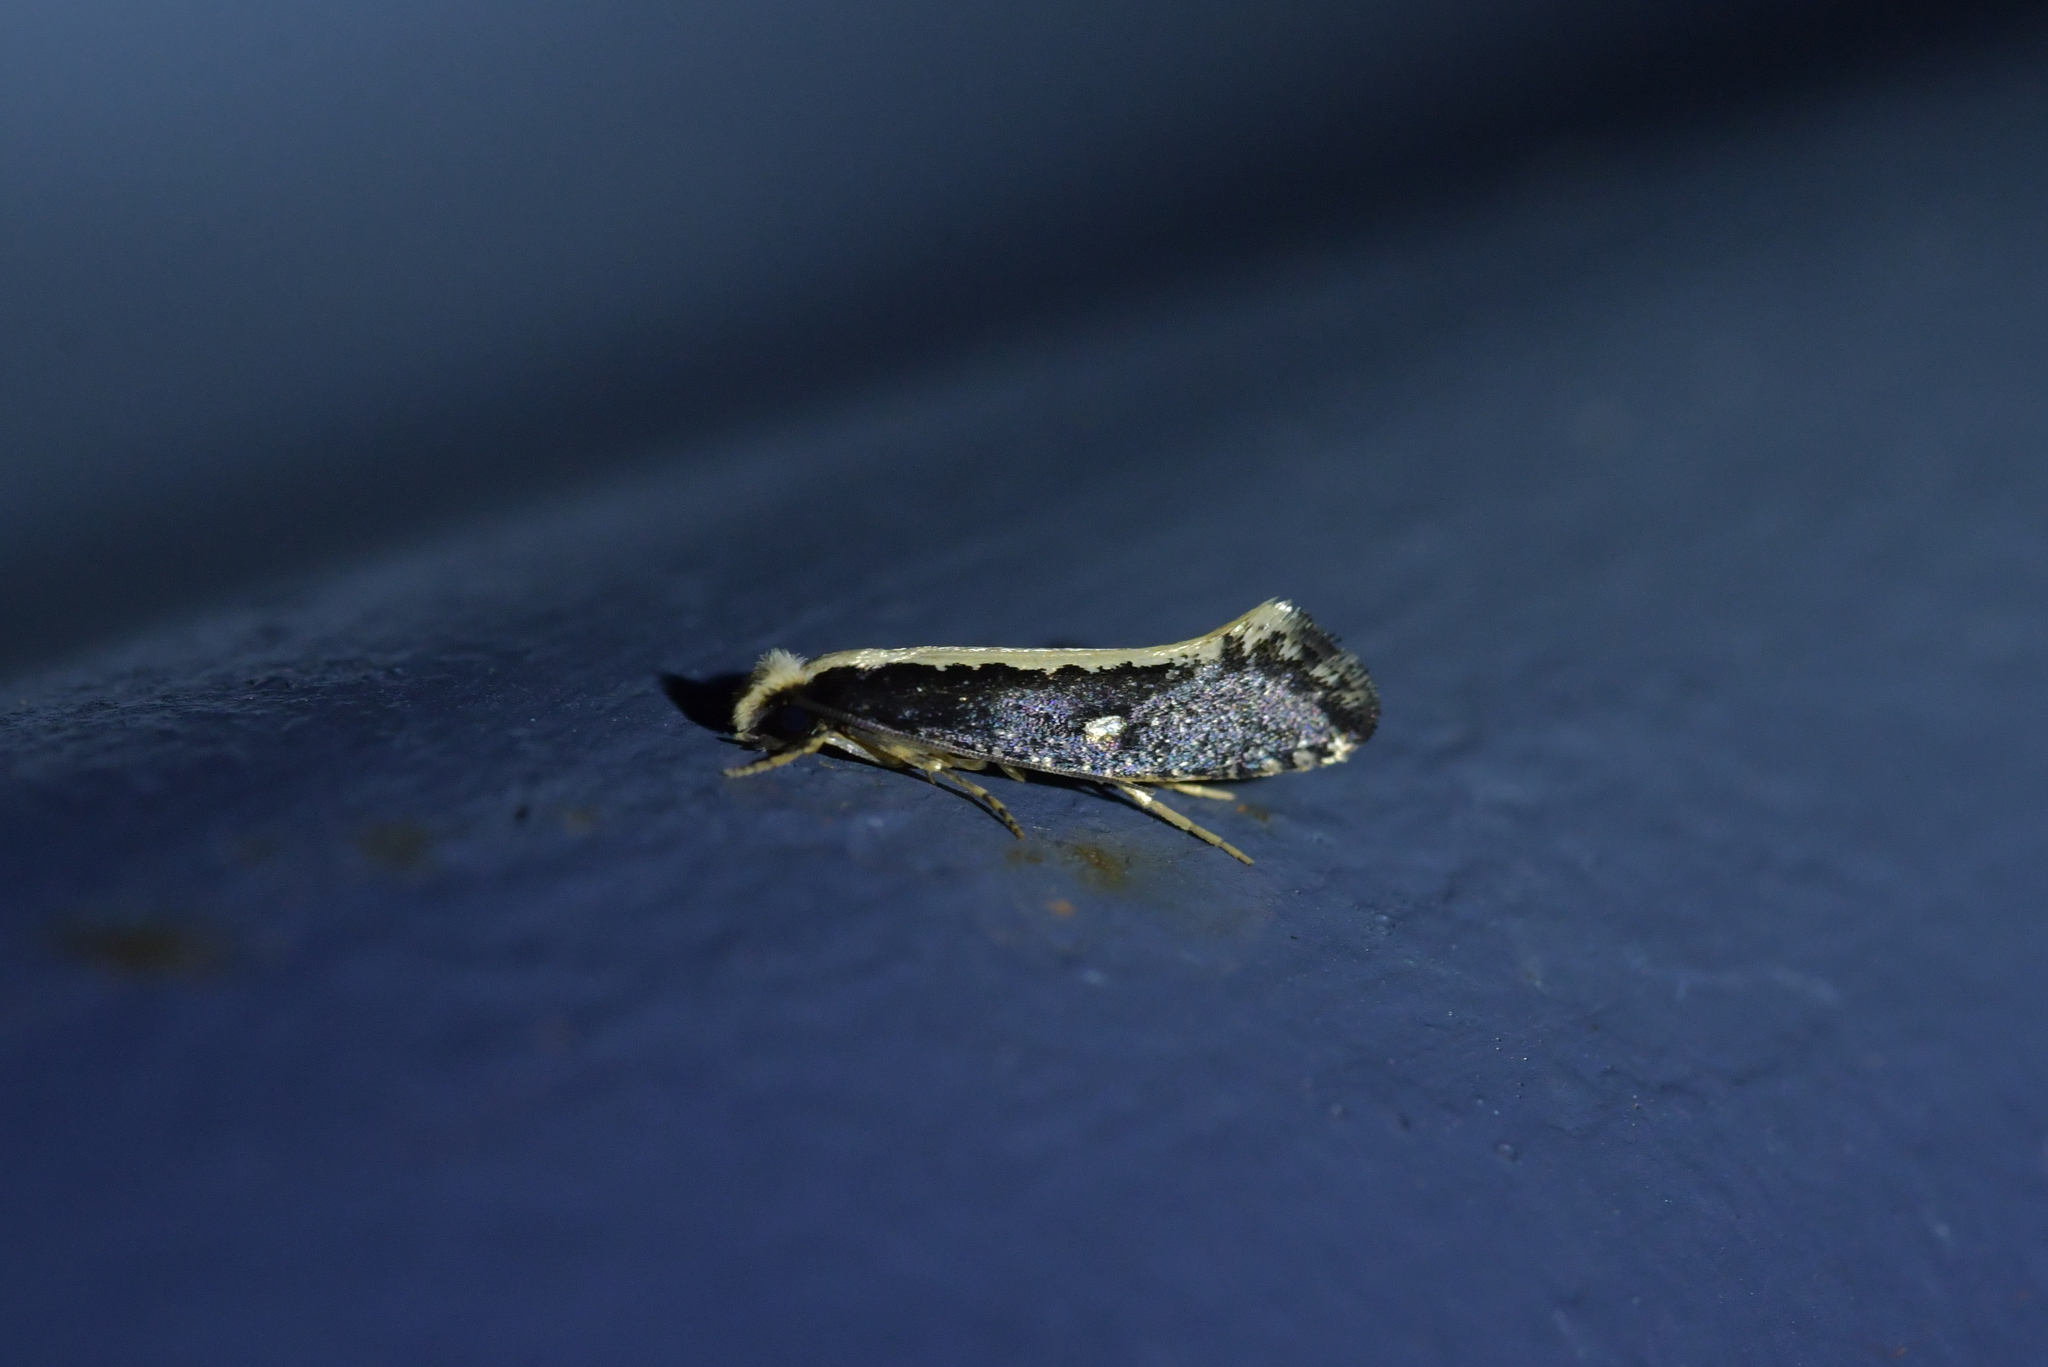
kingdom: Animalia
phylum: Arthropoda
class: Insecta
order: Lepidoptera
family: Tineidae
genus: Monopis
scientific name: Monopis ethelella
